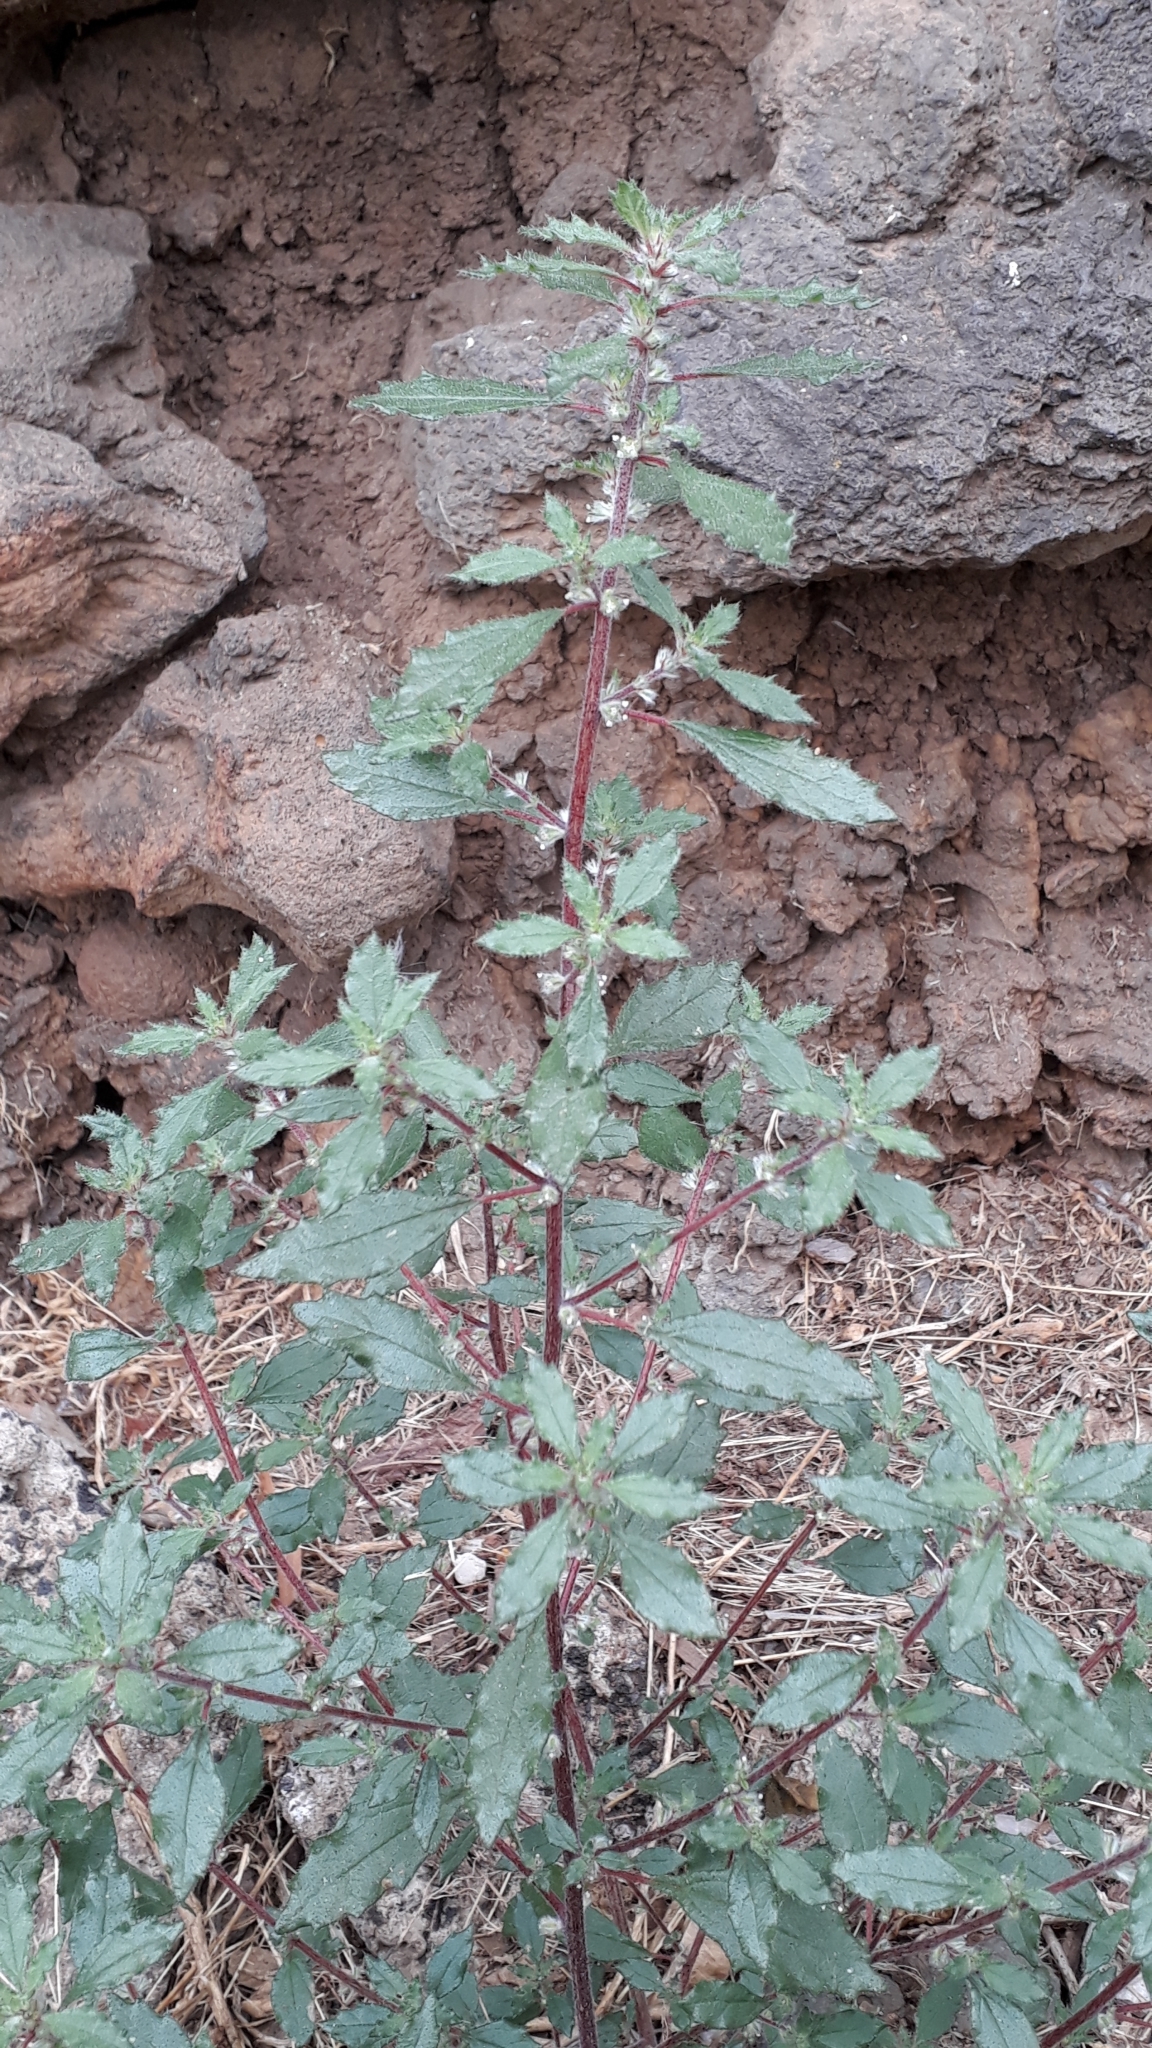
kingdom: Plantae
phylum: Tracheophyta
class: Magnoliopsida
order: Rosales
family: Urticaceae
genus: Forsskaolea
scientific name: Forsskaolea angustifolia
